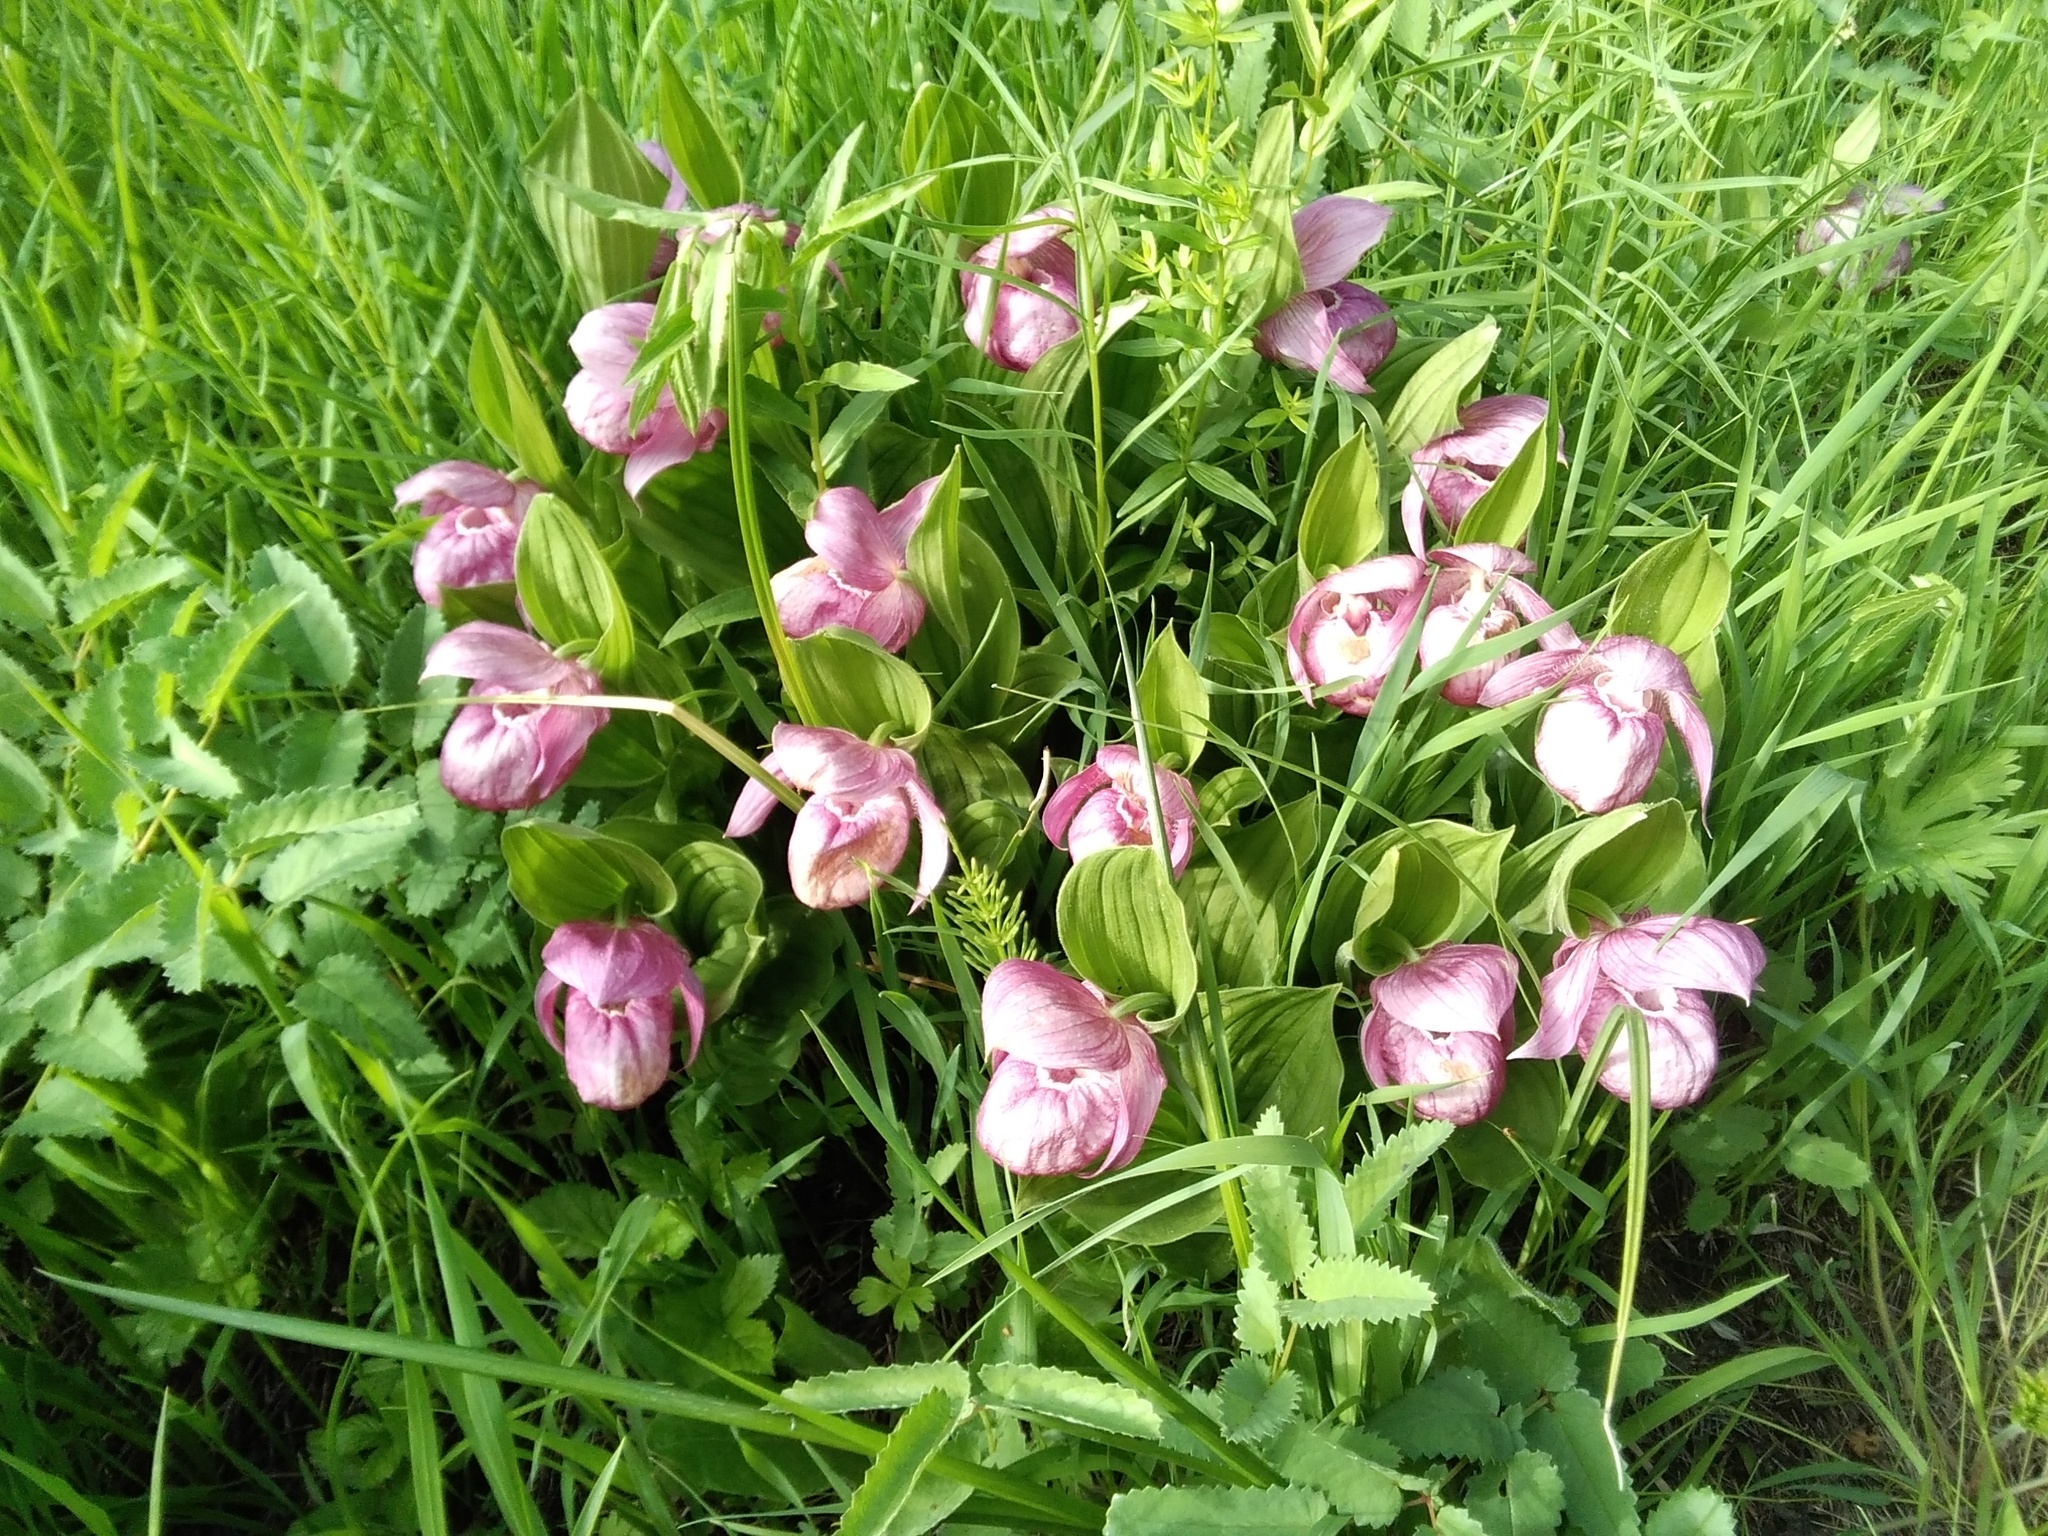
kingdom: Plantae
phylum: Tracheophyta
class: Liliopsida
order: Asparagales
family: Orchidaceae
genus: Cypripedium
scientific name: Cypripedium macranthos
